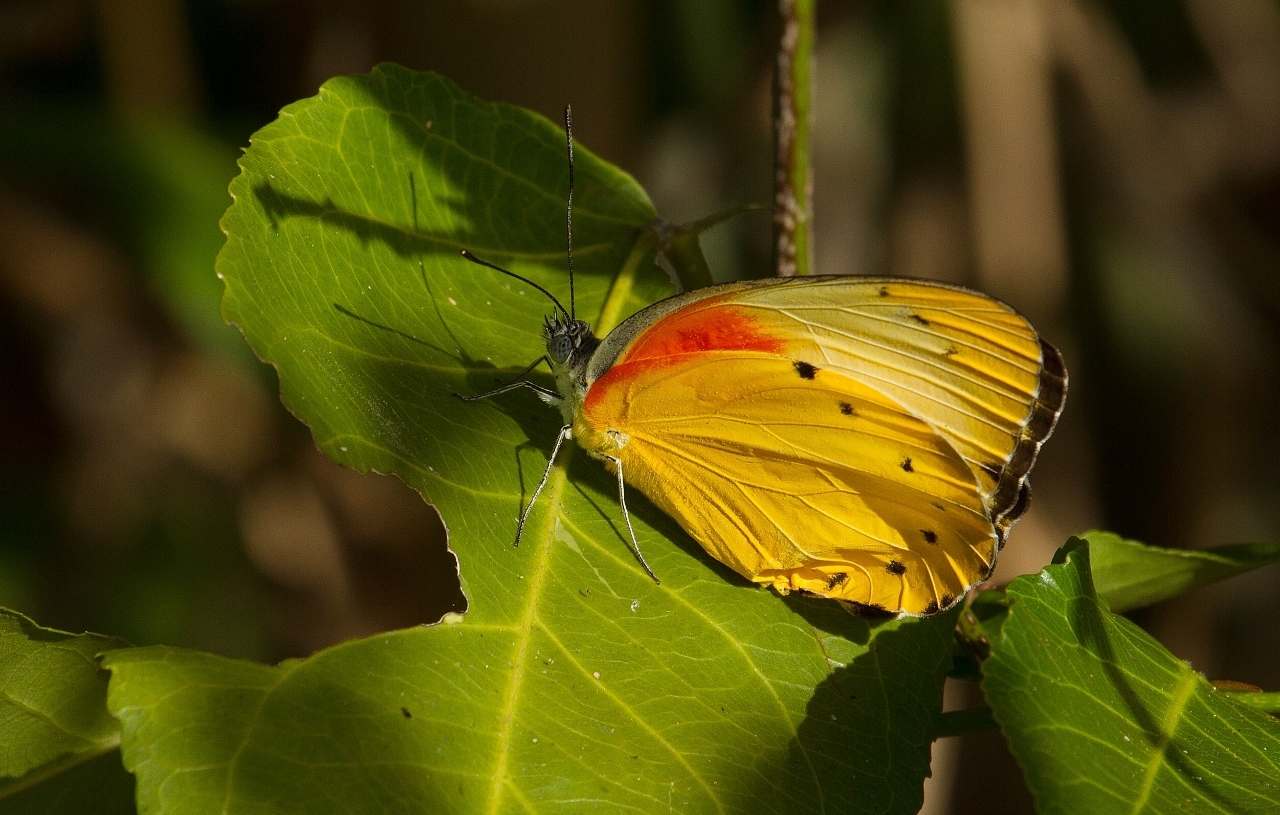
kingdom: Animalia
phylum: Arthropoda
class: Insecta
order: Lepidoptera
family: Pieridae
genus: Belenois
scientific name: Belenois thysa
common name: False dotted border
